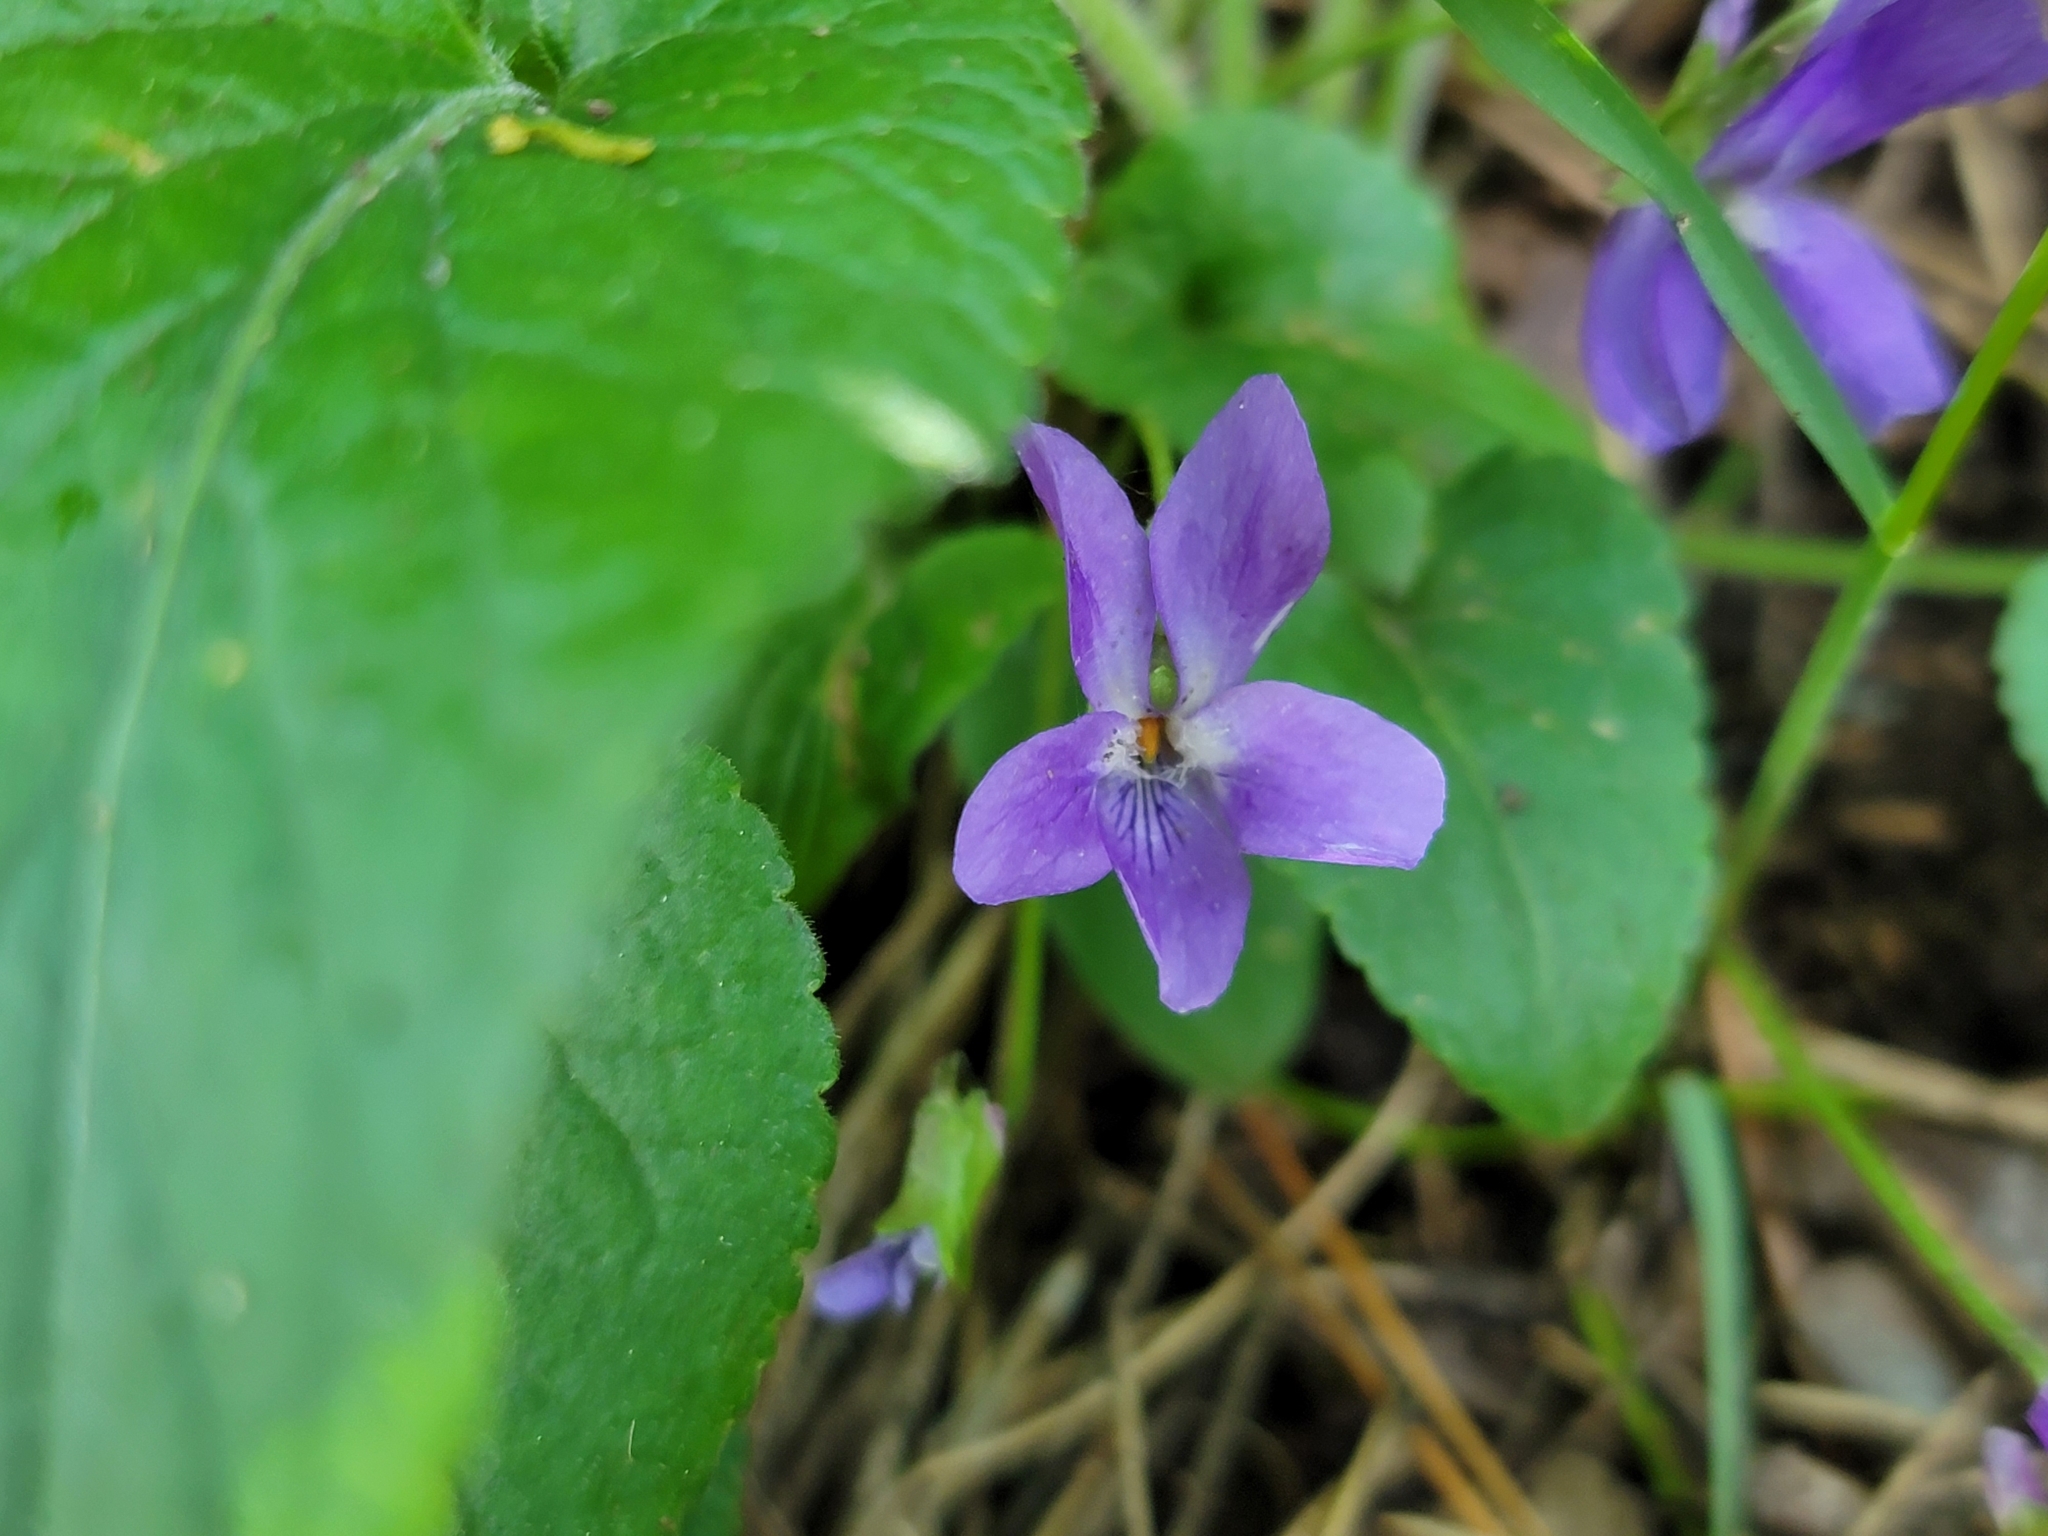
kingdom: Plantae
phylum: Tracheophyta
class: Magnoliopsida
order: Malpighiales
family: Violaceae
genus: Viola
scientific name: Viola hirta
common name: Hairy violet
